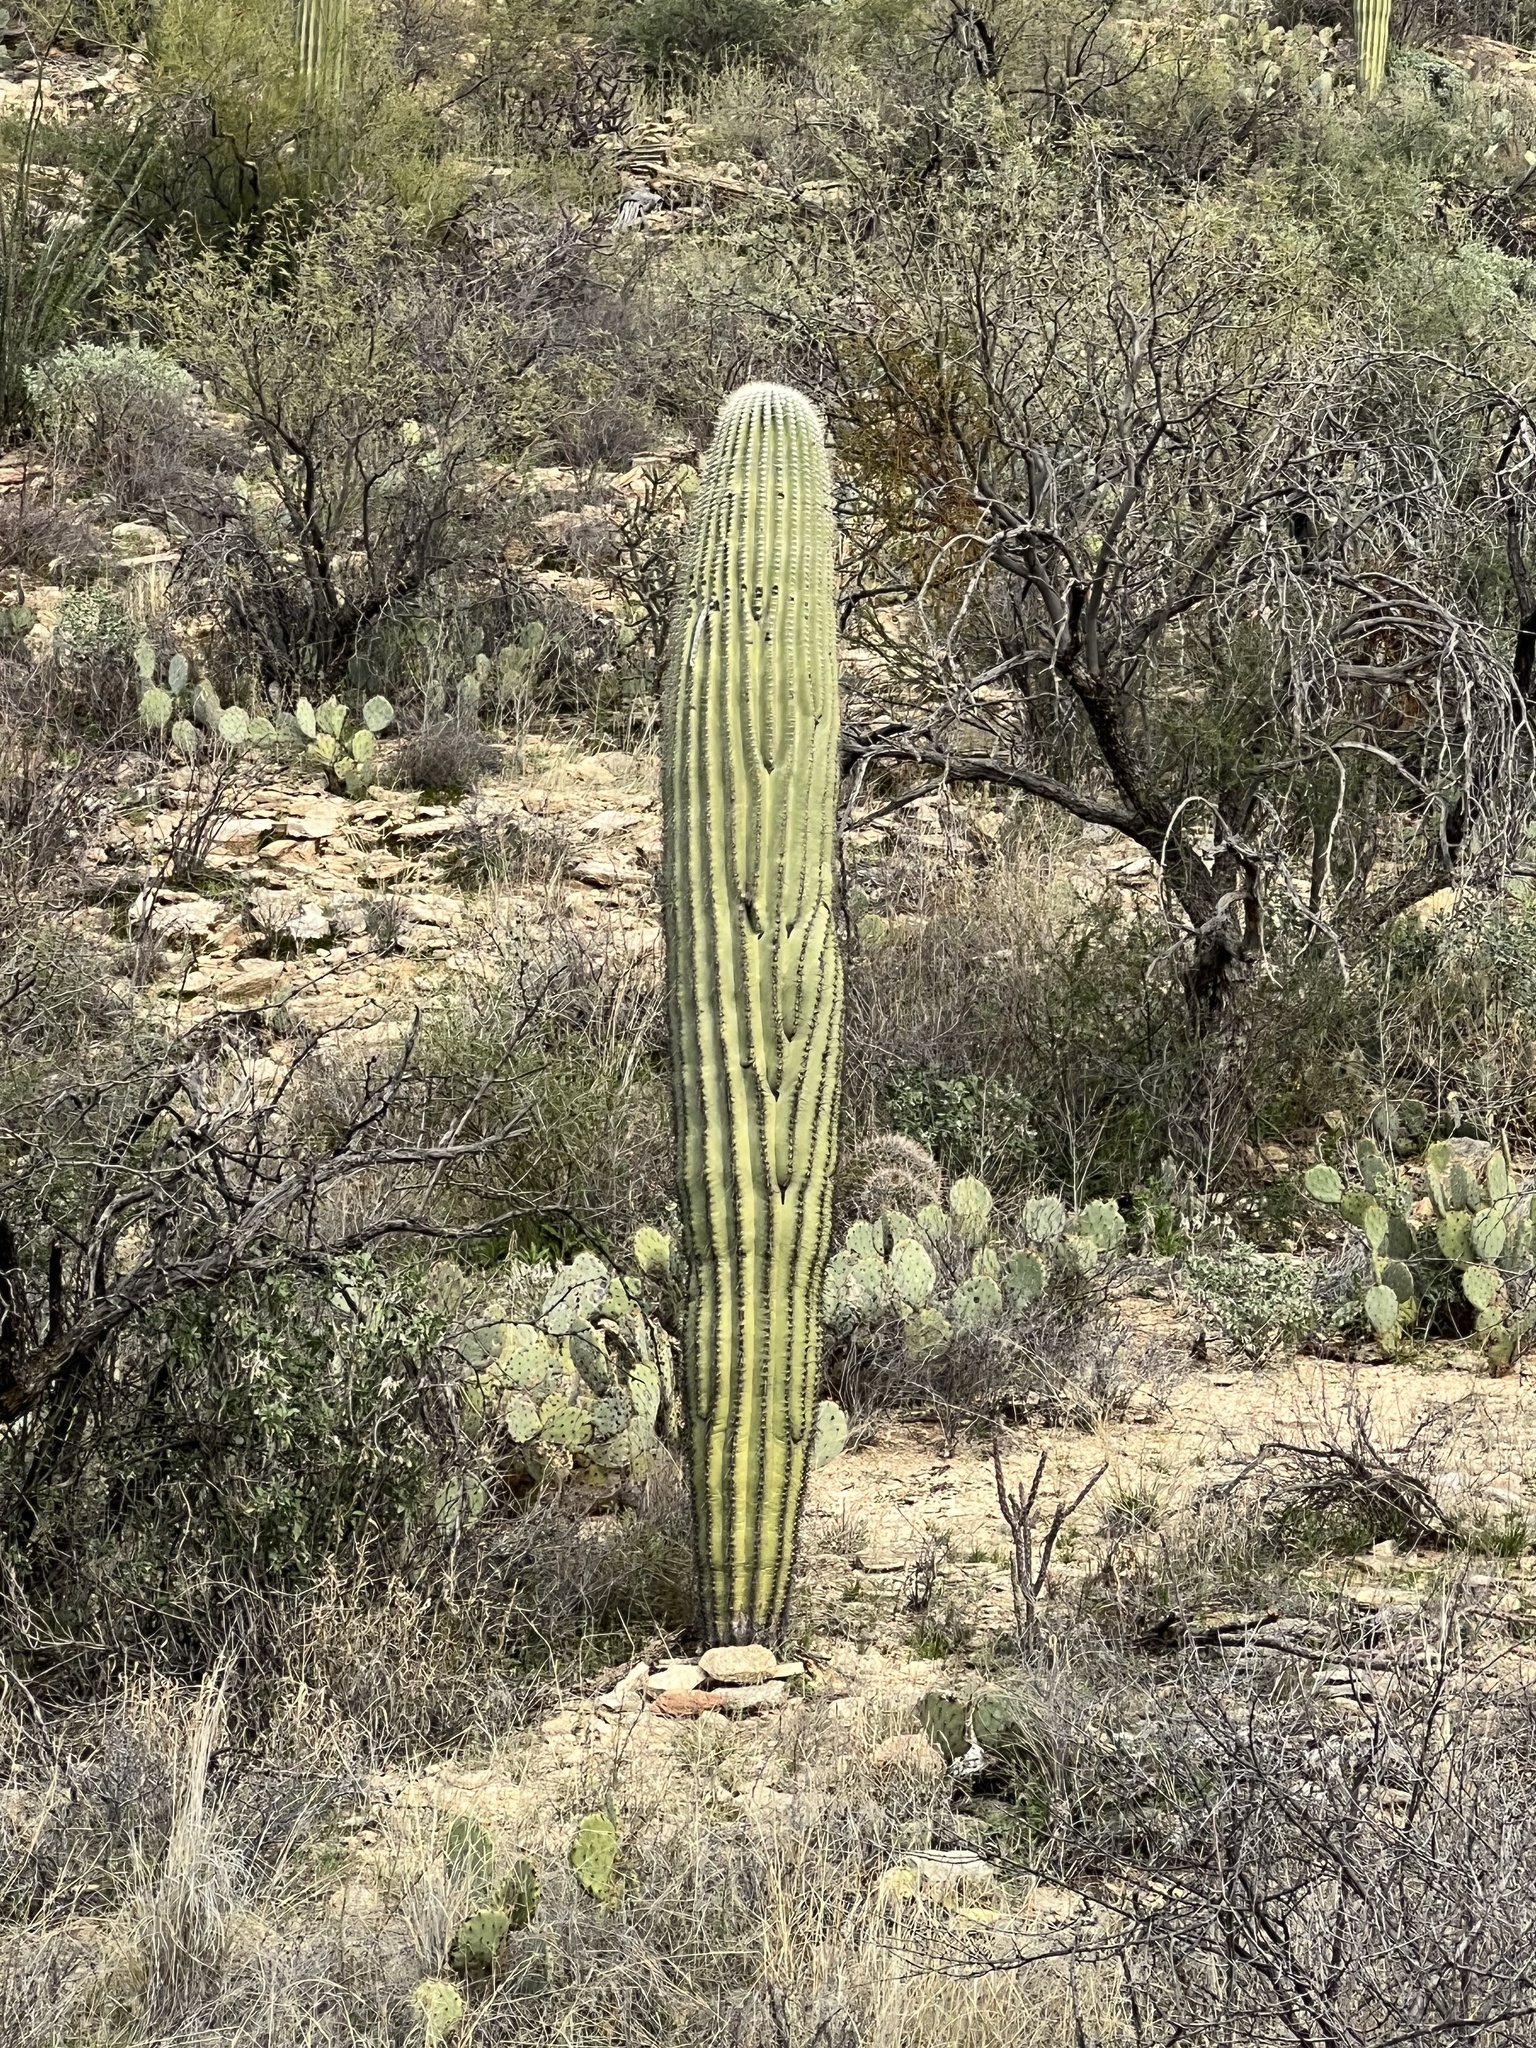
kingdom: Plantae
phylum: Tracheophyta
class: Magnoliopsida
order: Caryophyllales
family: Cactaceae
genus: Carnegiea
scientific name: Carnegiea gigantea
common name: Saguaro
